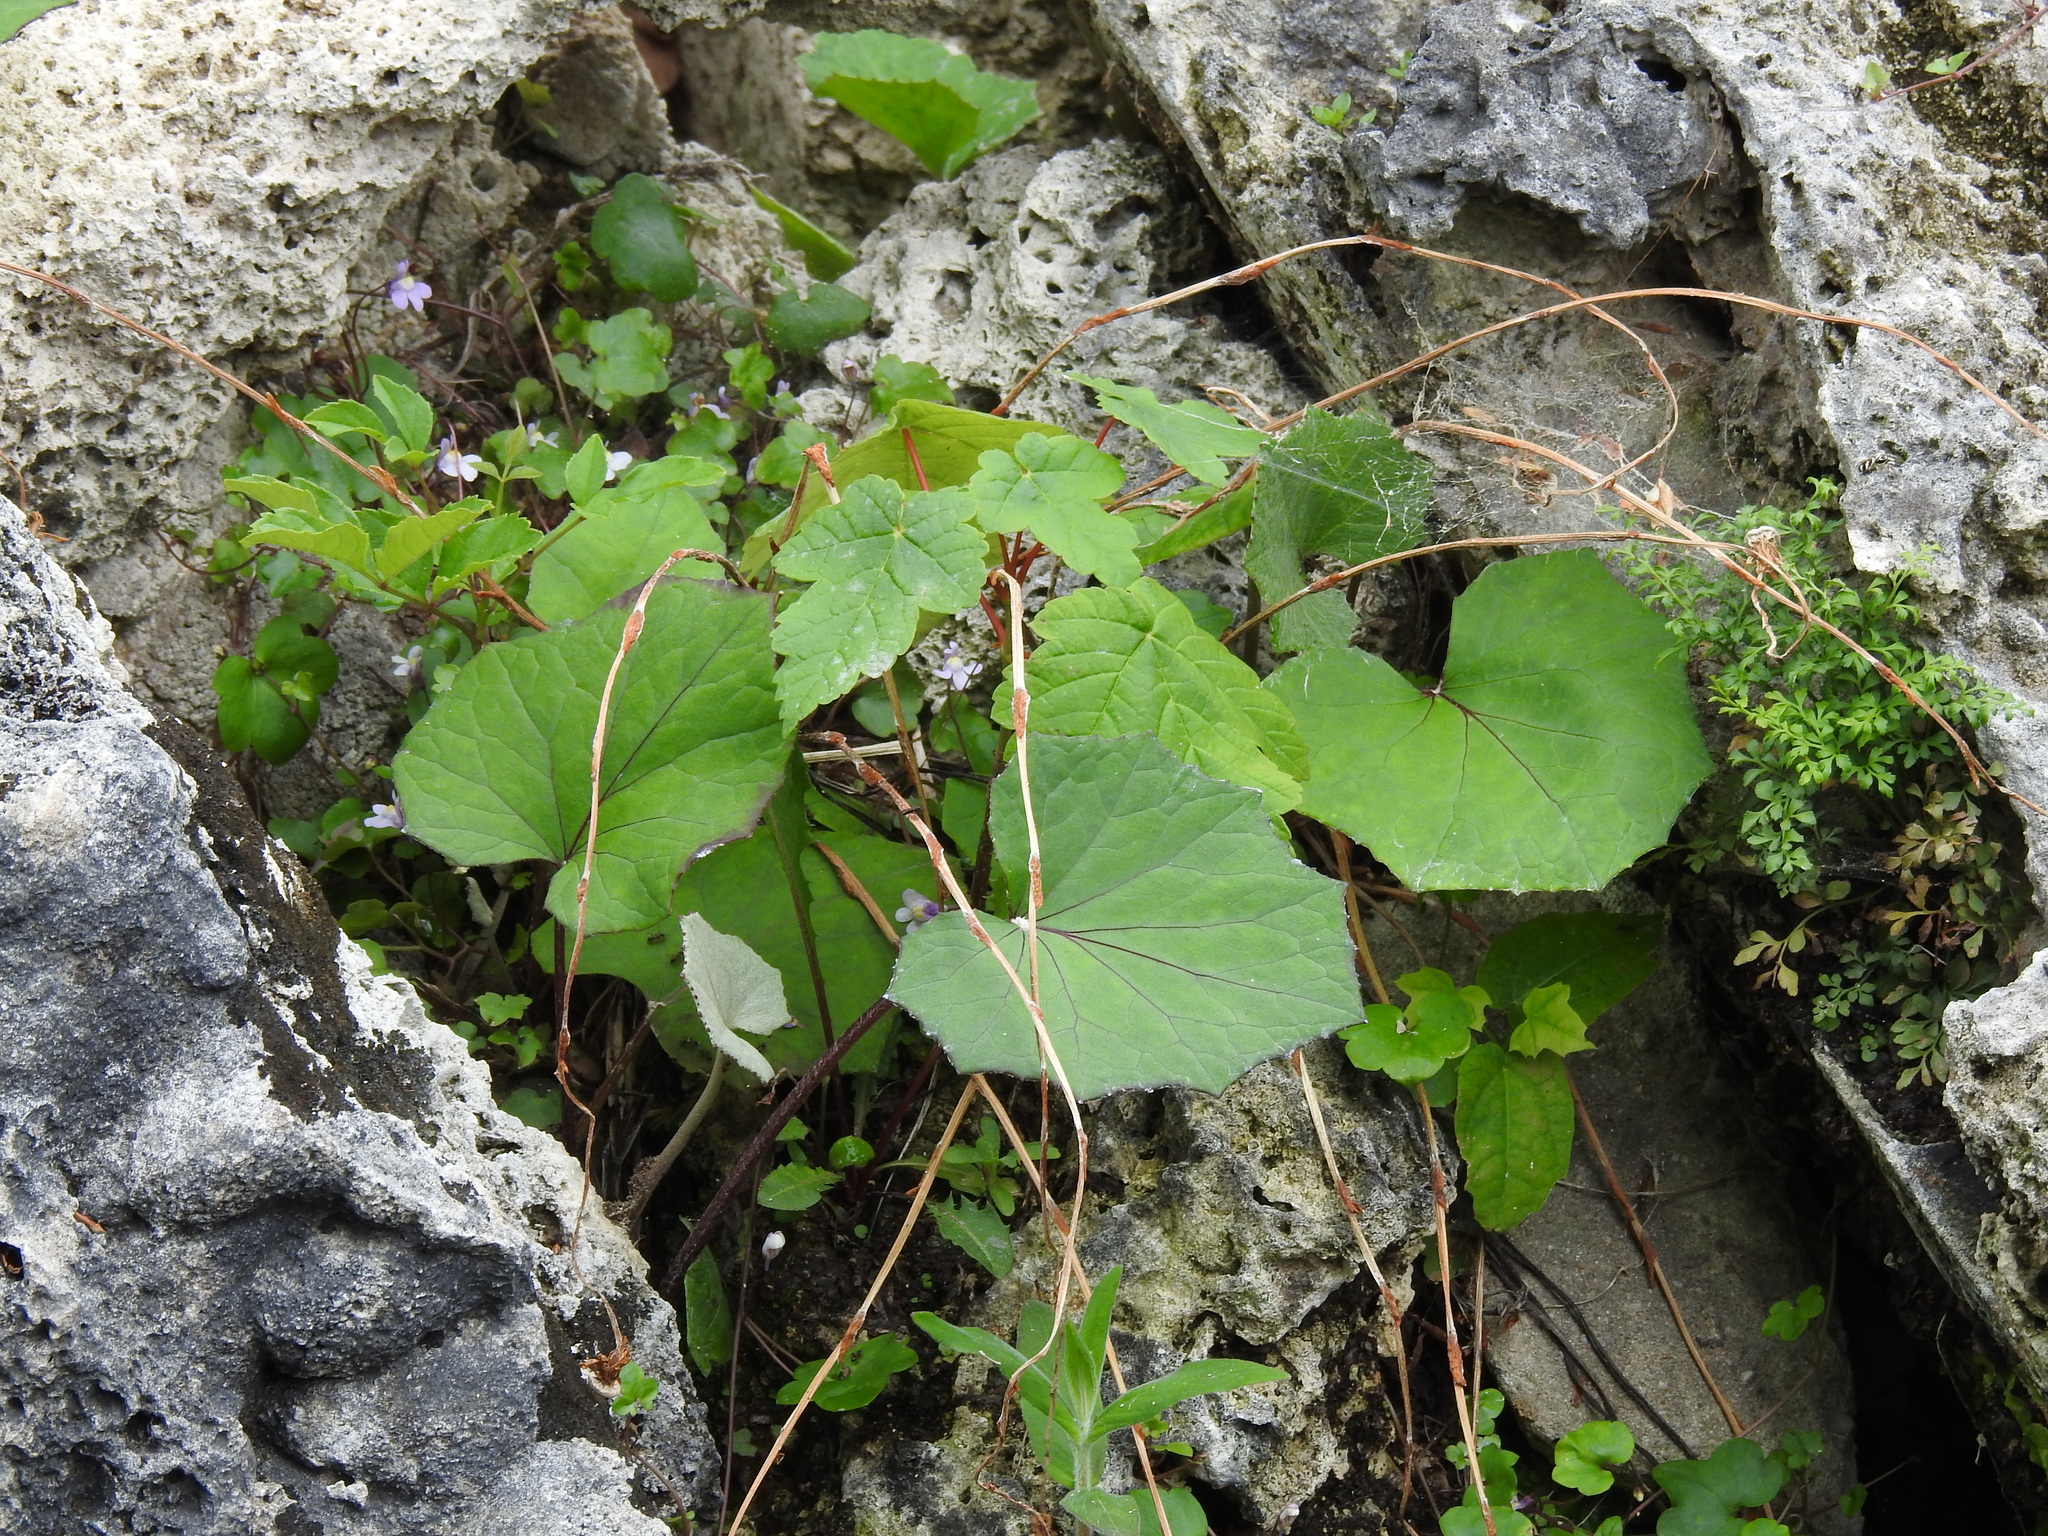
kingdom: Plantae
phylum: Tracheophyta
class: Magnoliopsida
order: Asterales
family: Asteraceae
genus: Tussilago
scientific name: Tussilago farfara
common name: Coltsfoot
